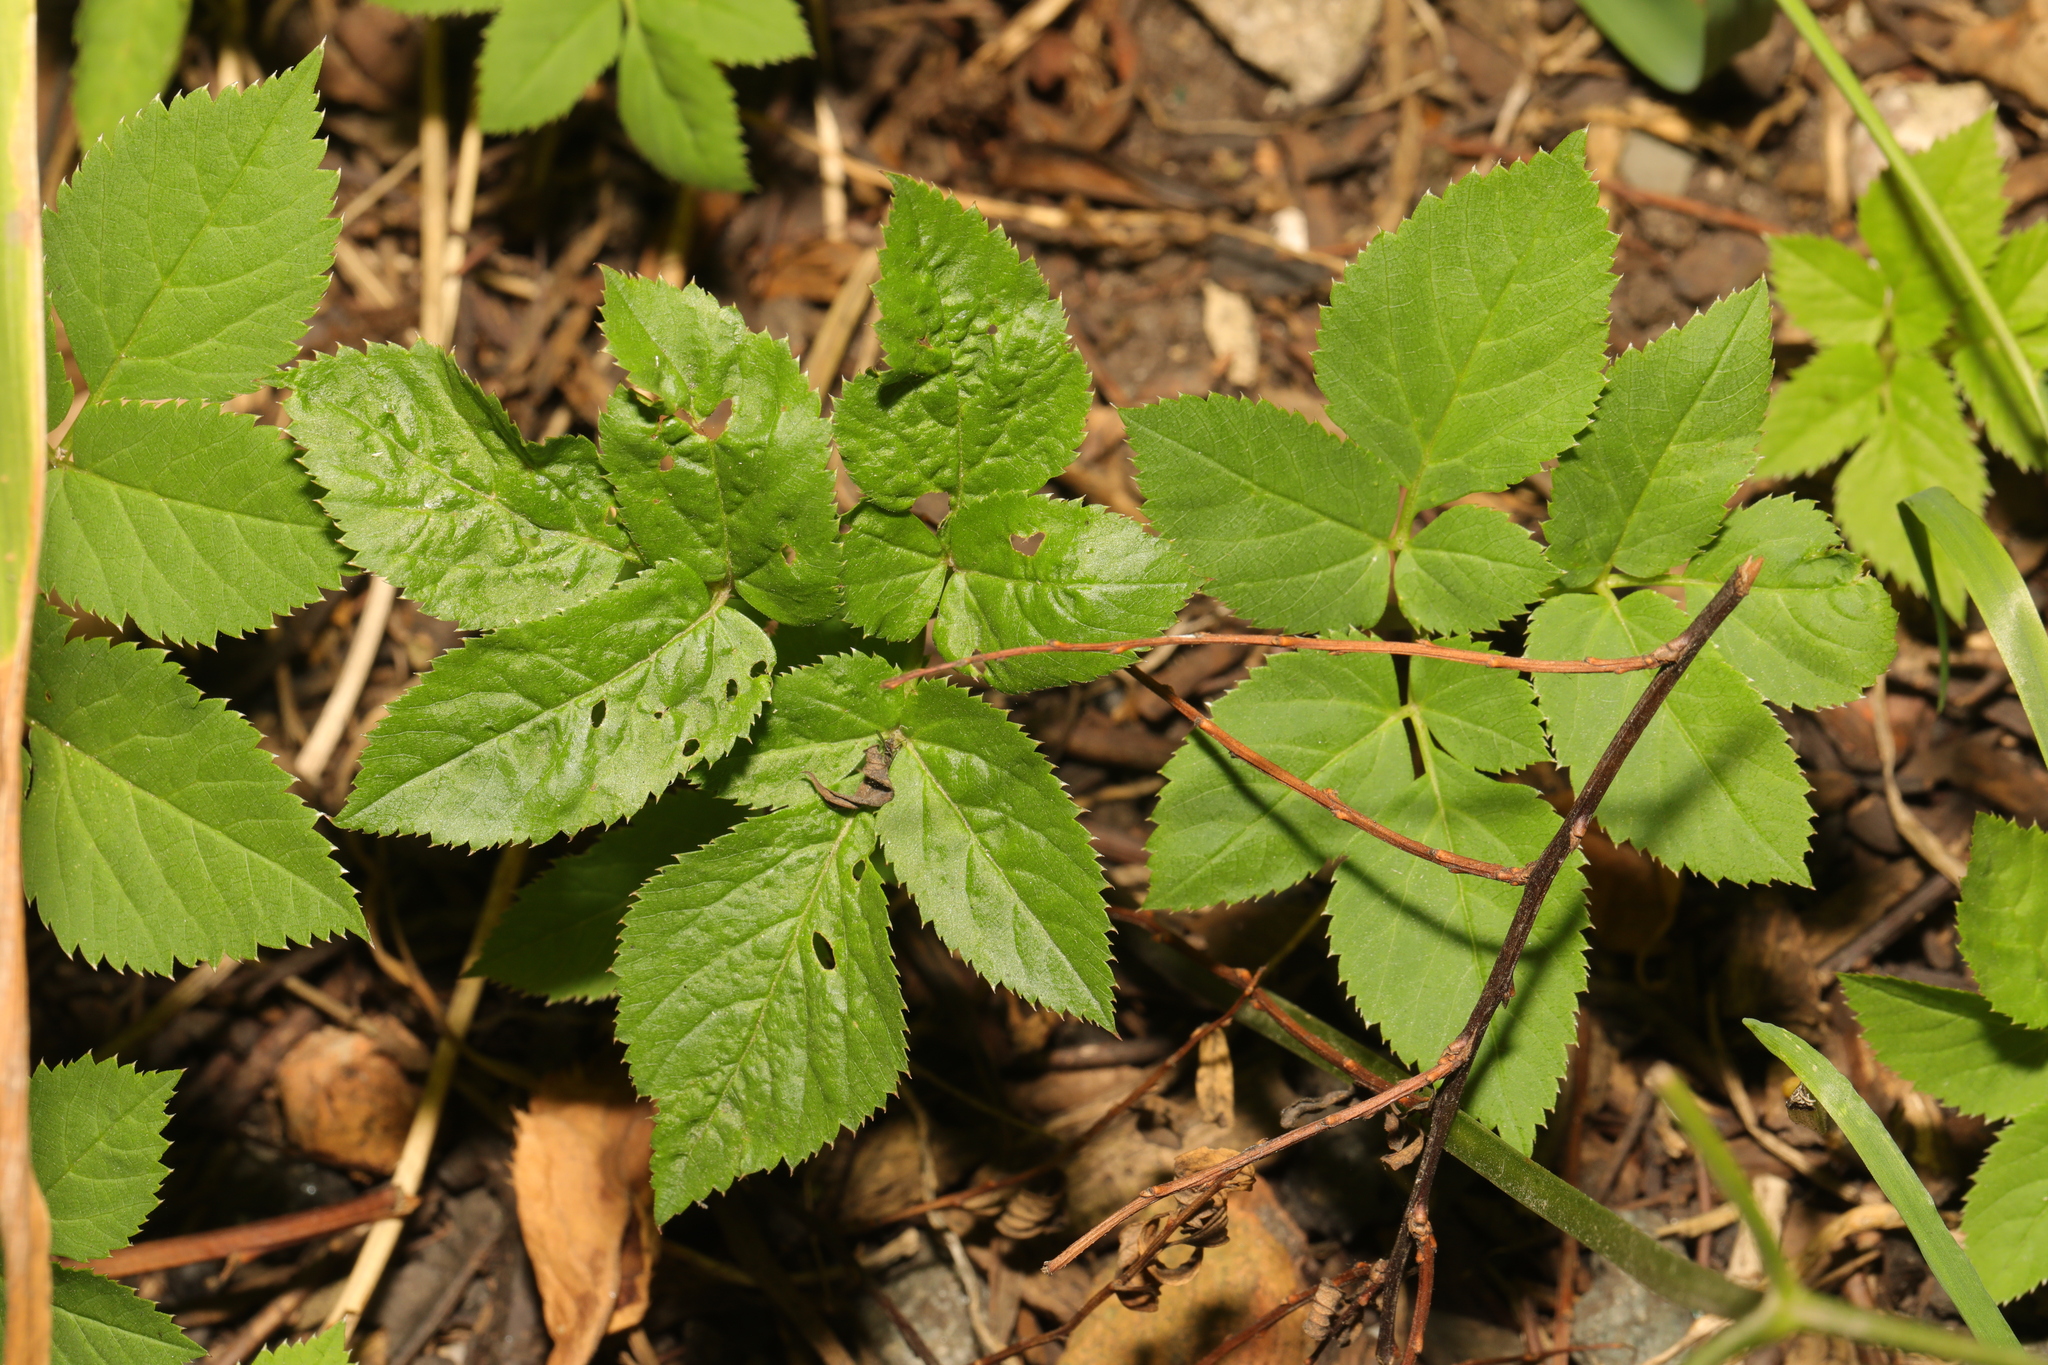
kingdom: Plantae
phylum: Tracheophyta
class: Magnoliopsida
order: Apiales
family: Apiaceae
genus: Aegopodium
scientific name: Aegopodium podagraria
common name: Ground-elder
